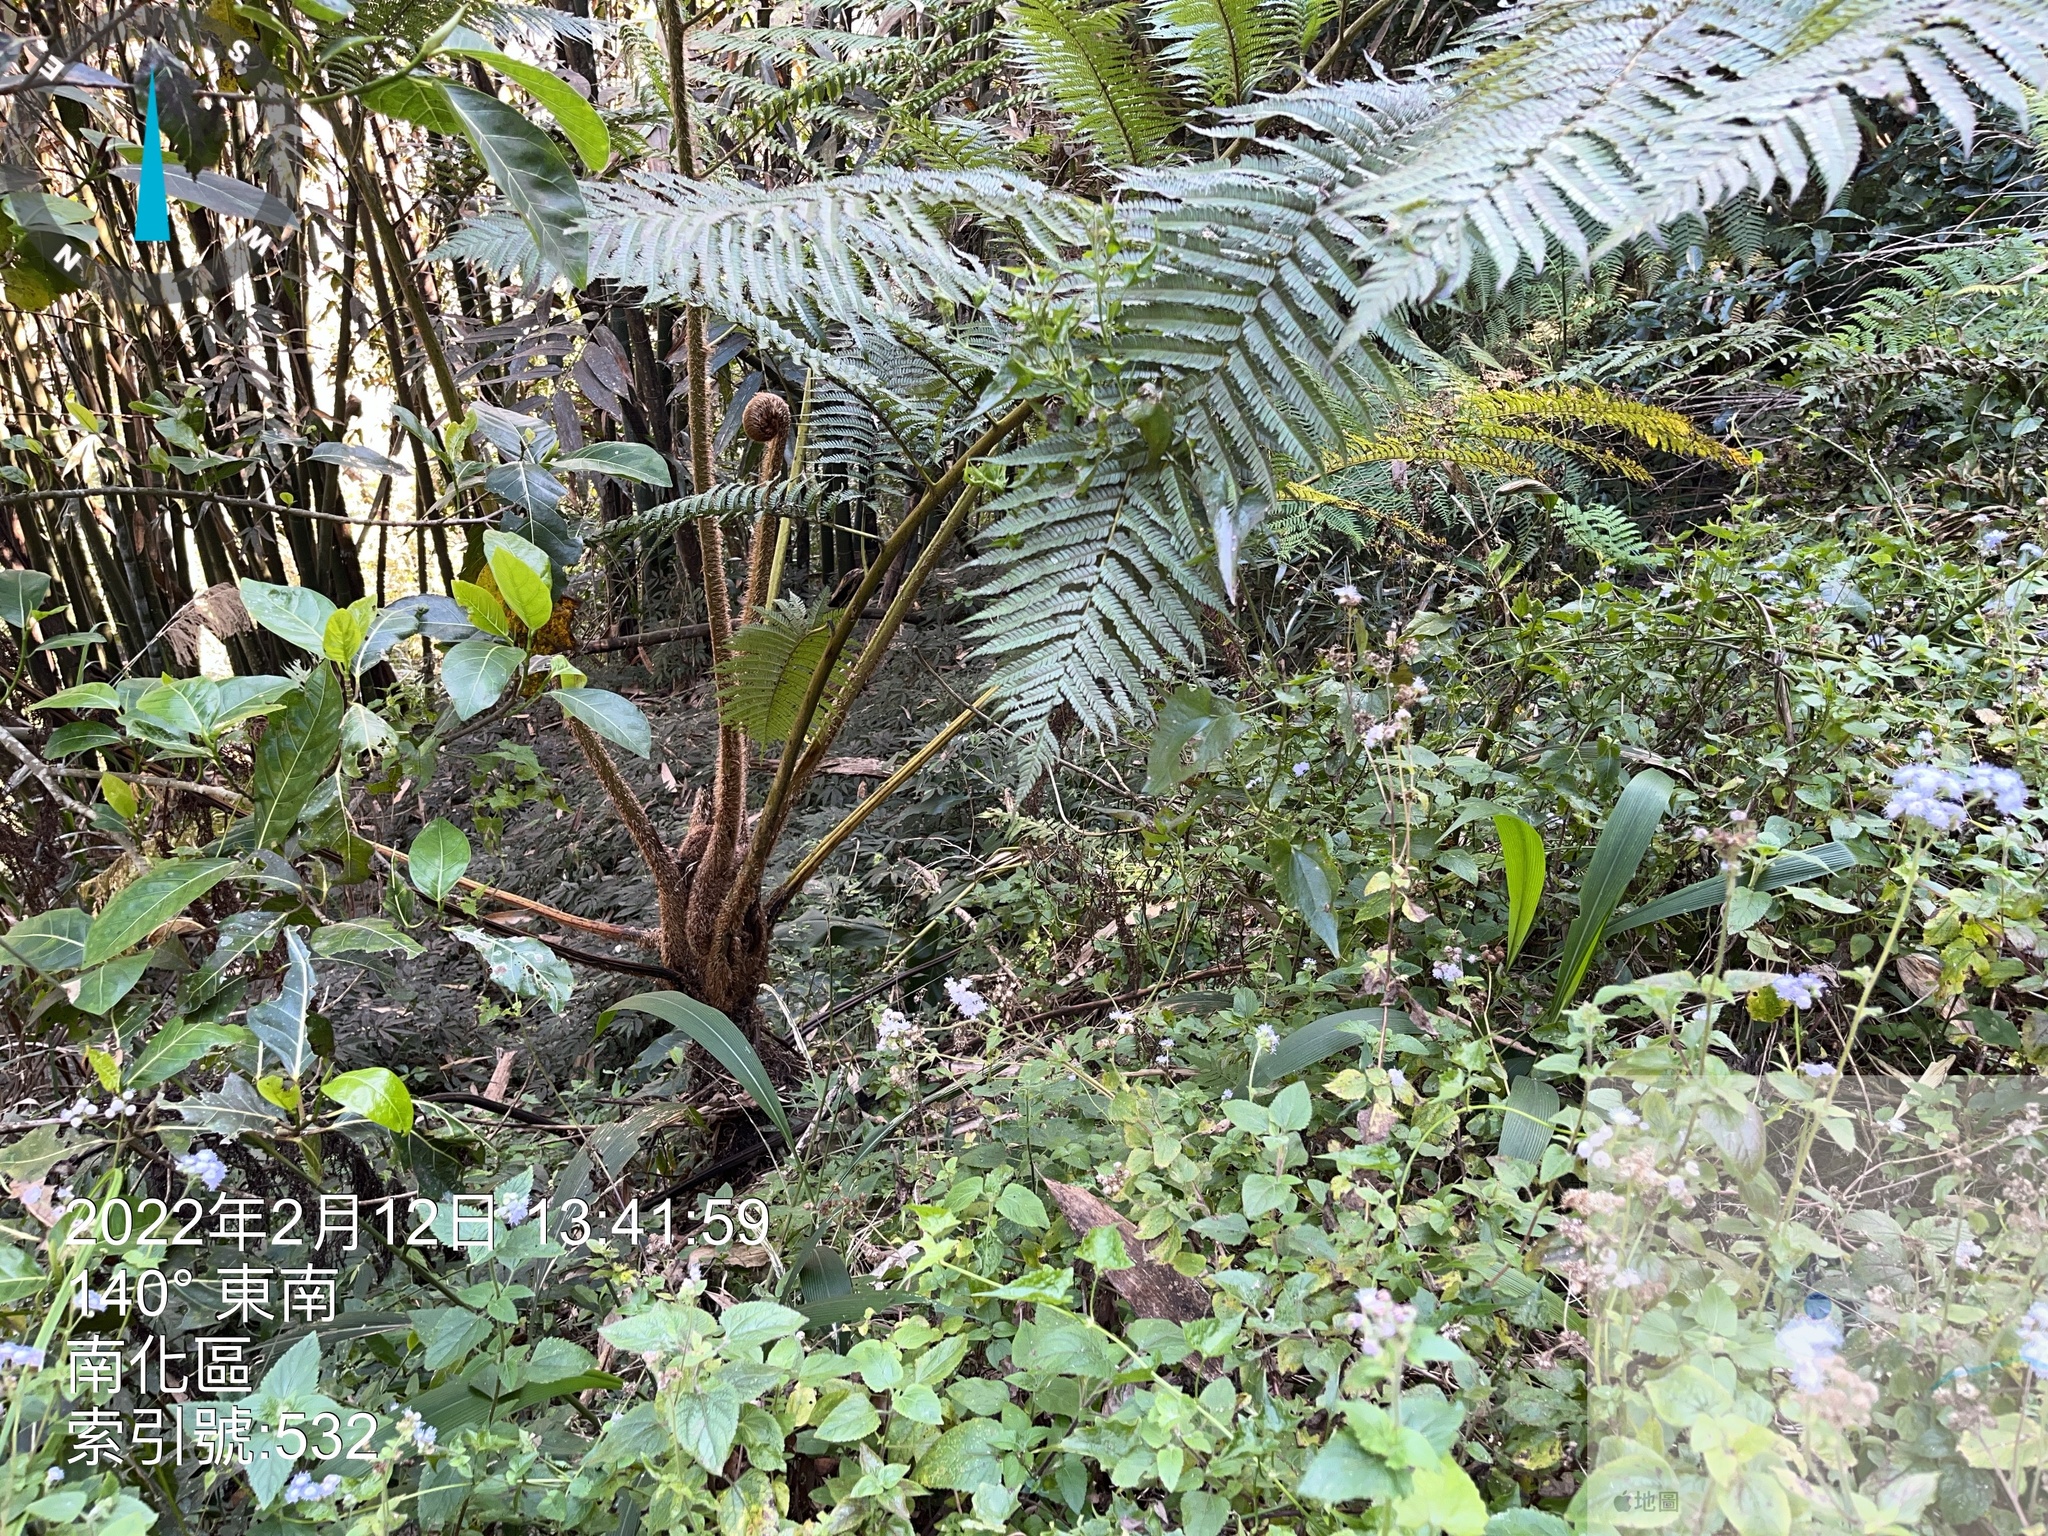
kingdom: Plantae
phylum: Tracheophyta
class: Polypodiopsida
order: Cyatheales
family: Cyatheaceae
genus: Alsophila
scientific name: Alsophila lepifera
